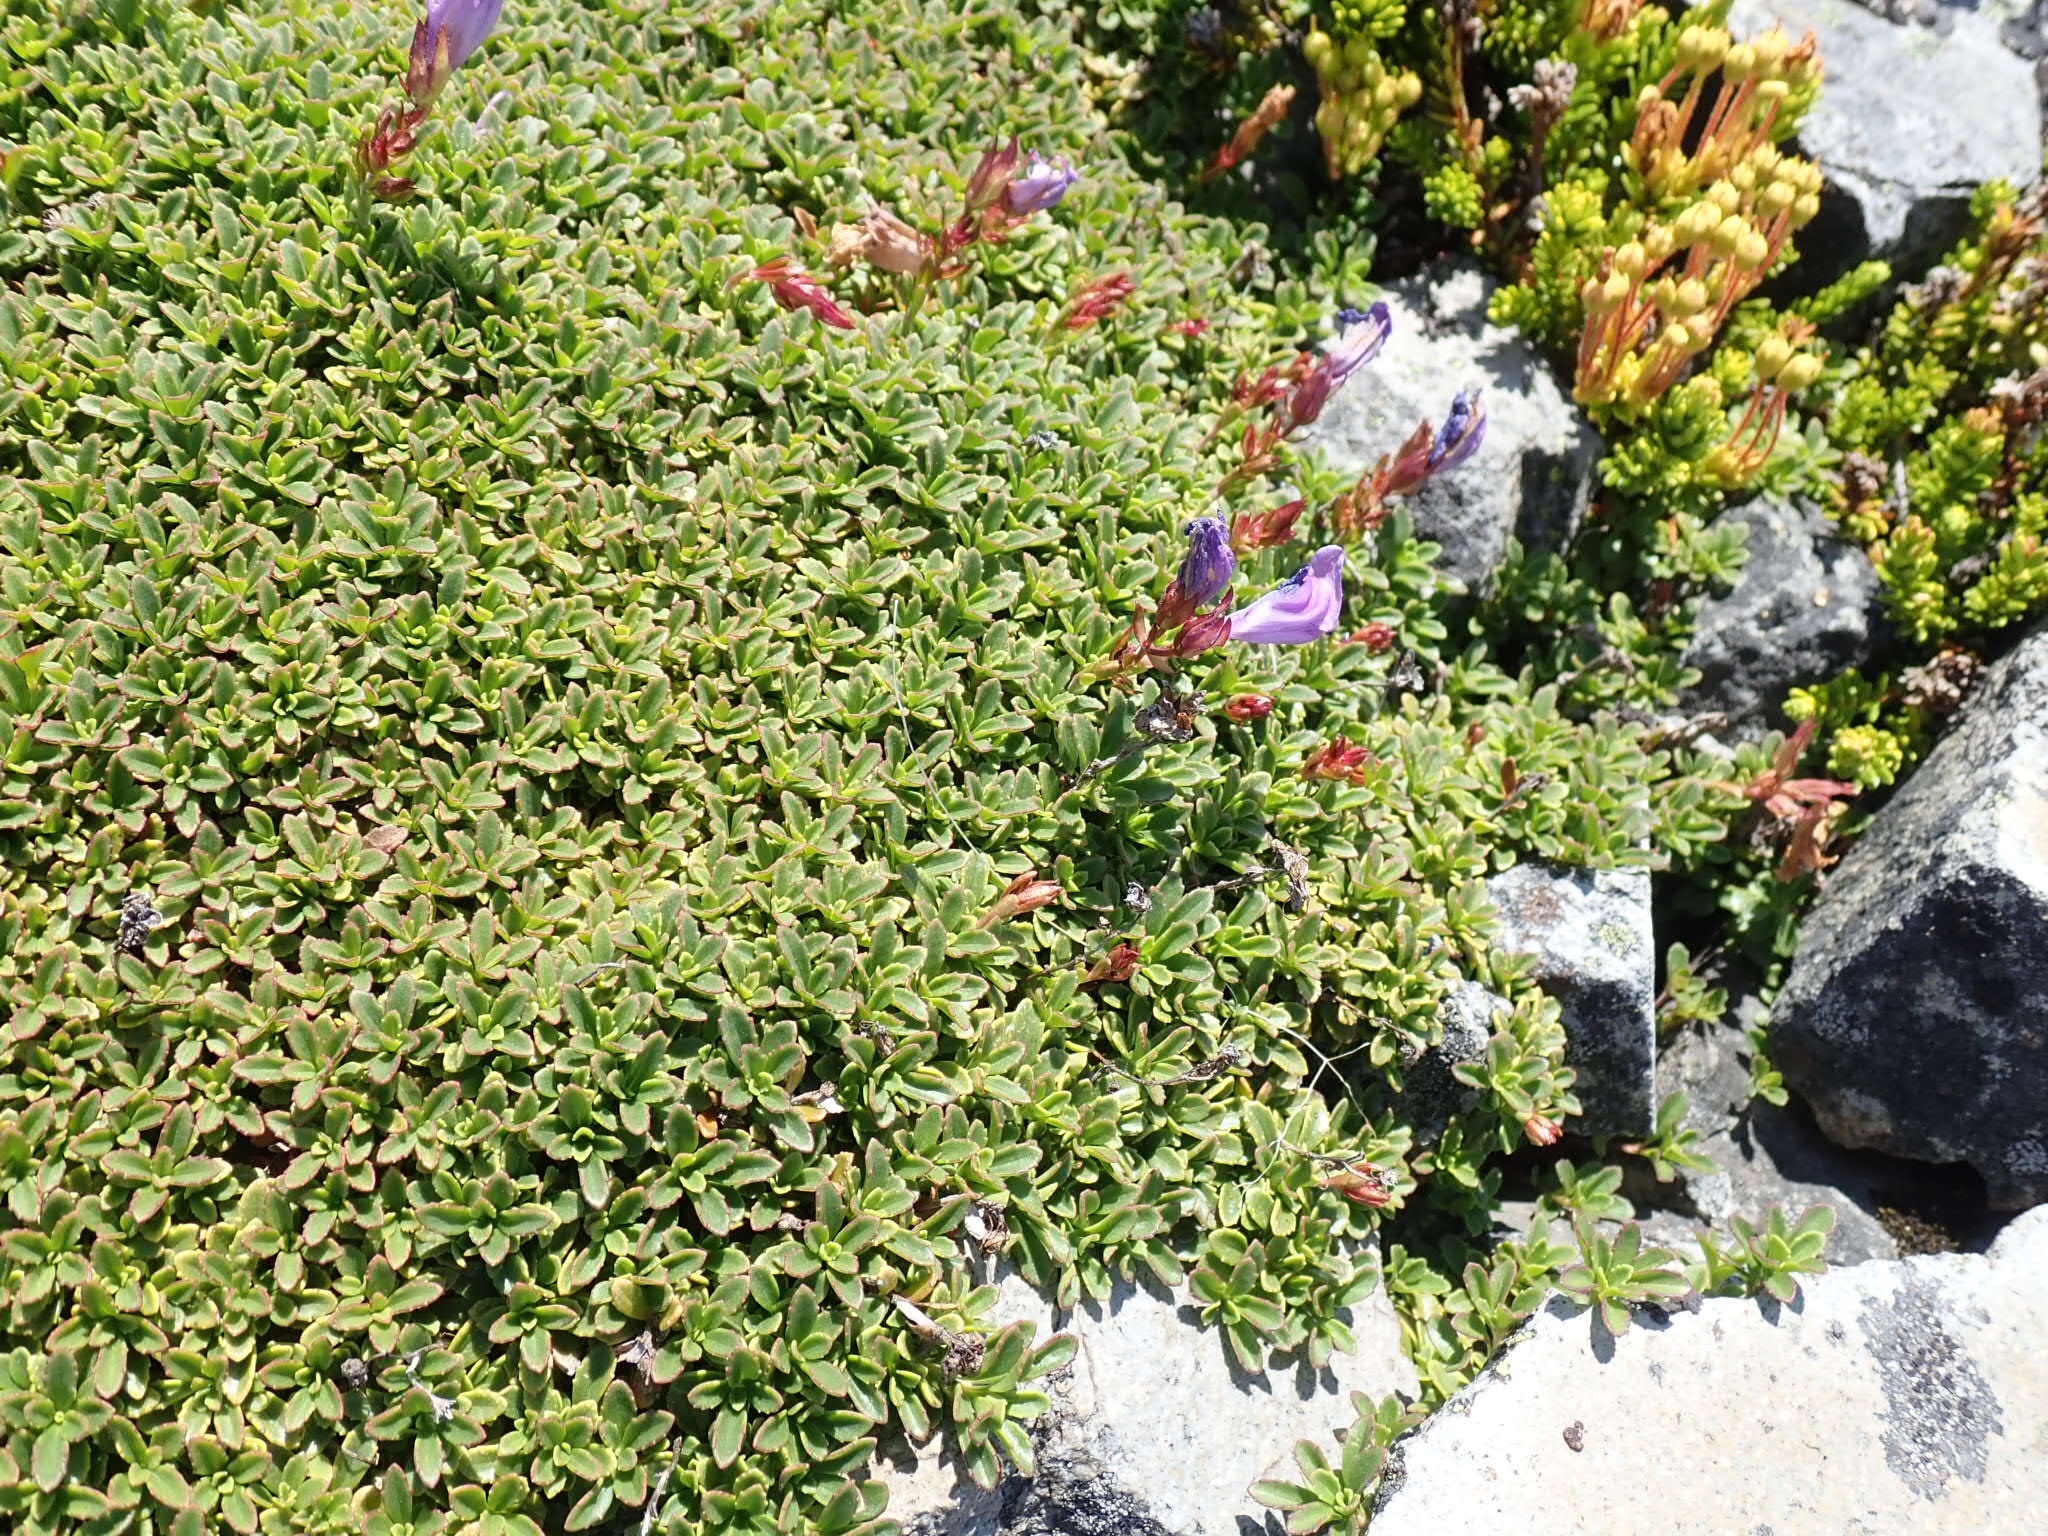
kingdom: Plantae
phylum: Tracheophyta
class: Magnoliopsida
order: Lamiales
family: Plantaginaceae
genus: Penstemon
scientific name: Penstemon davidsonii
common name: Davidson's penstemon
